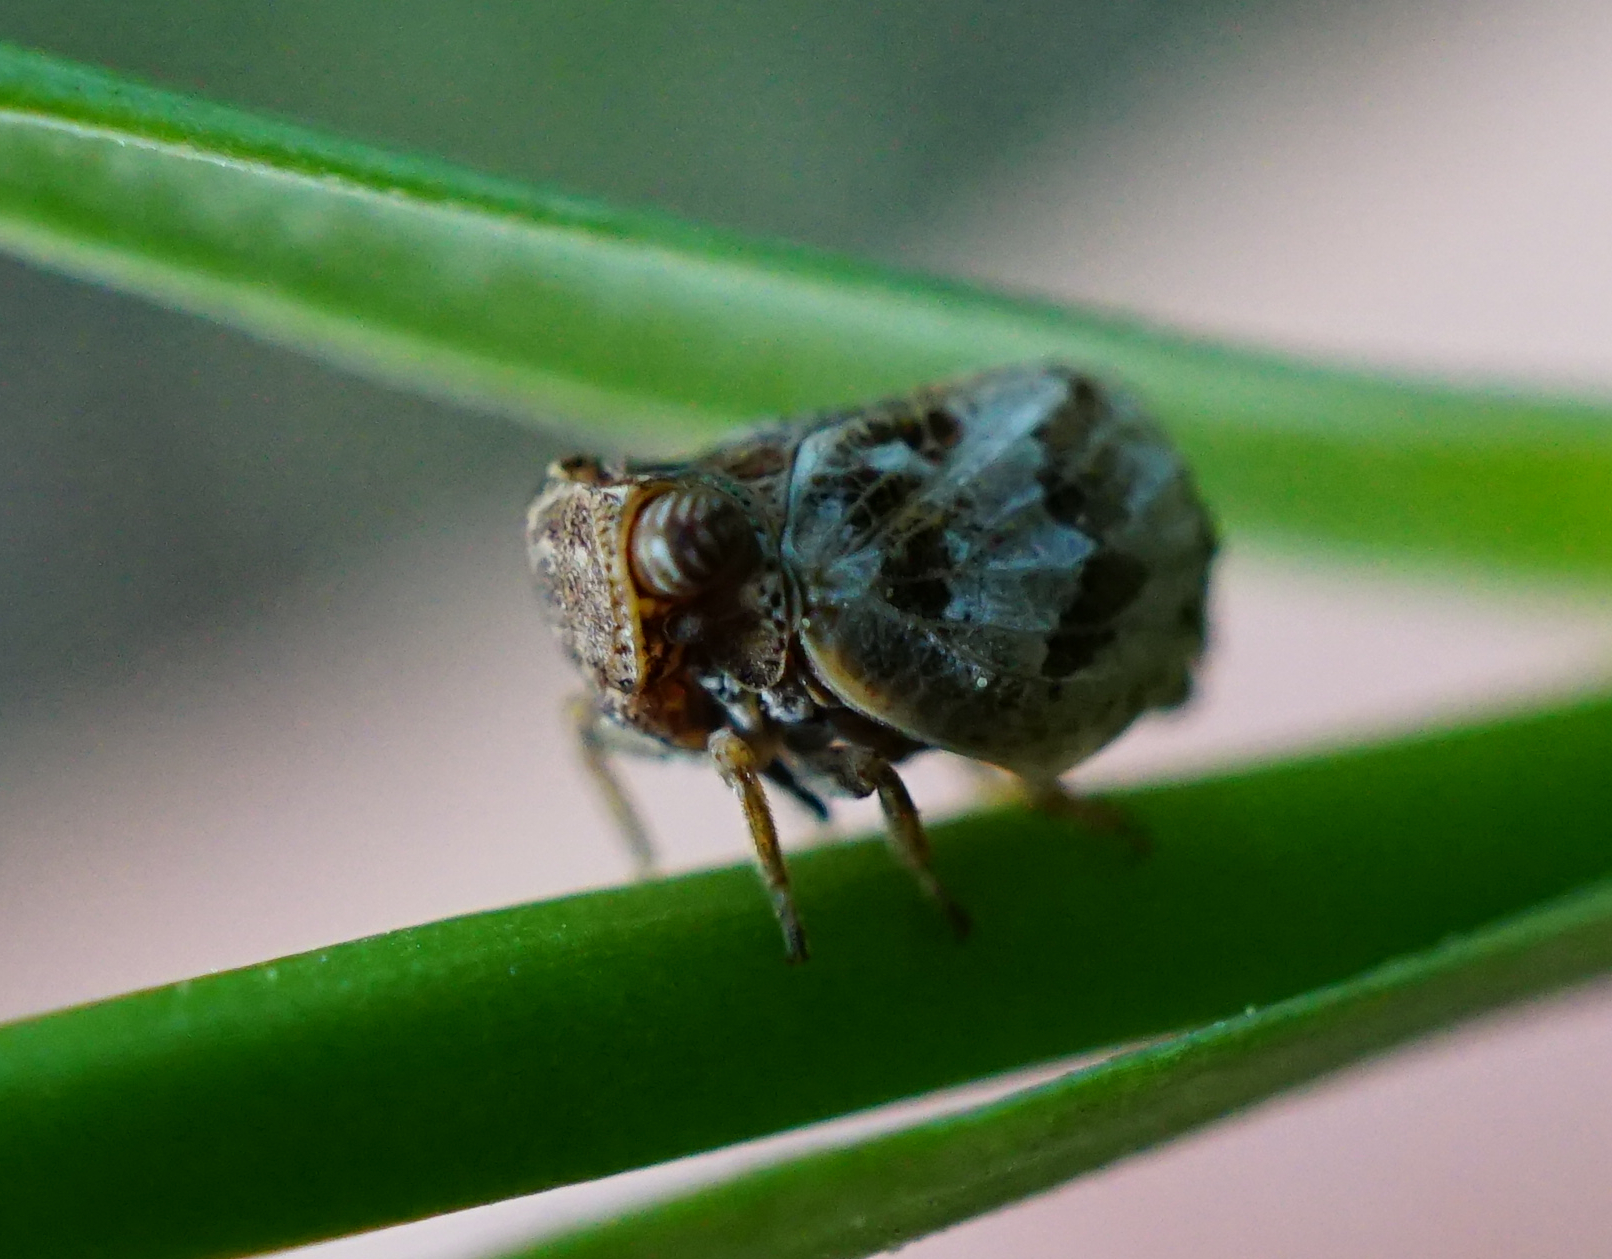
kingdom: Animalia
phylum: Arthropoda
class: Insecta
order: Hemiptera
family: Issidae
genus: Hysteropterum
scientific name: Hysteropterum reticulatum
